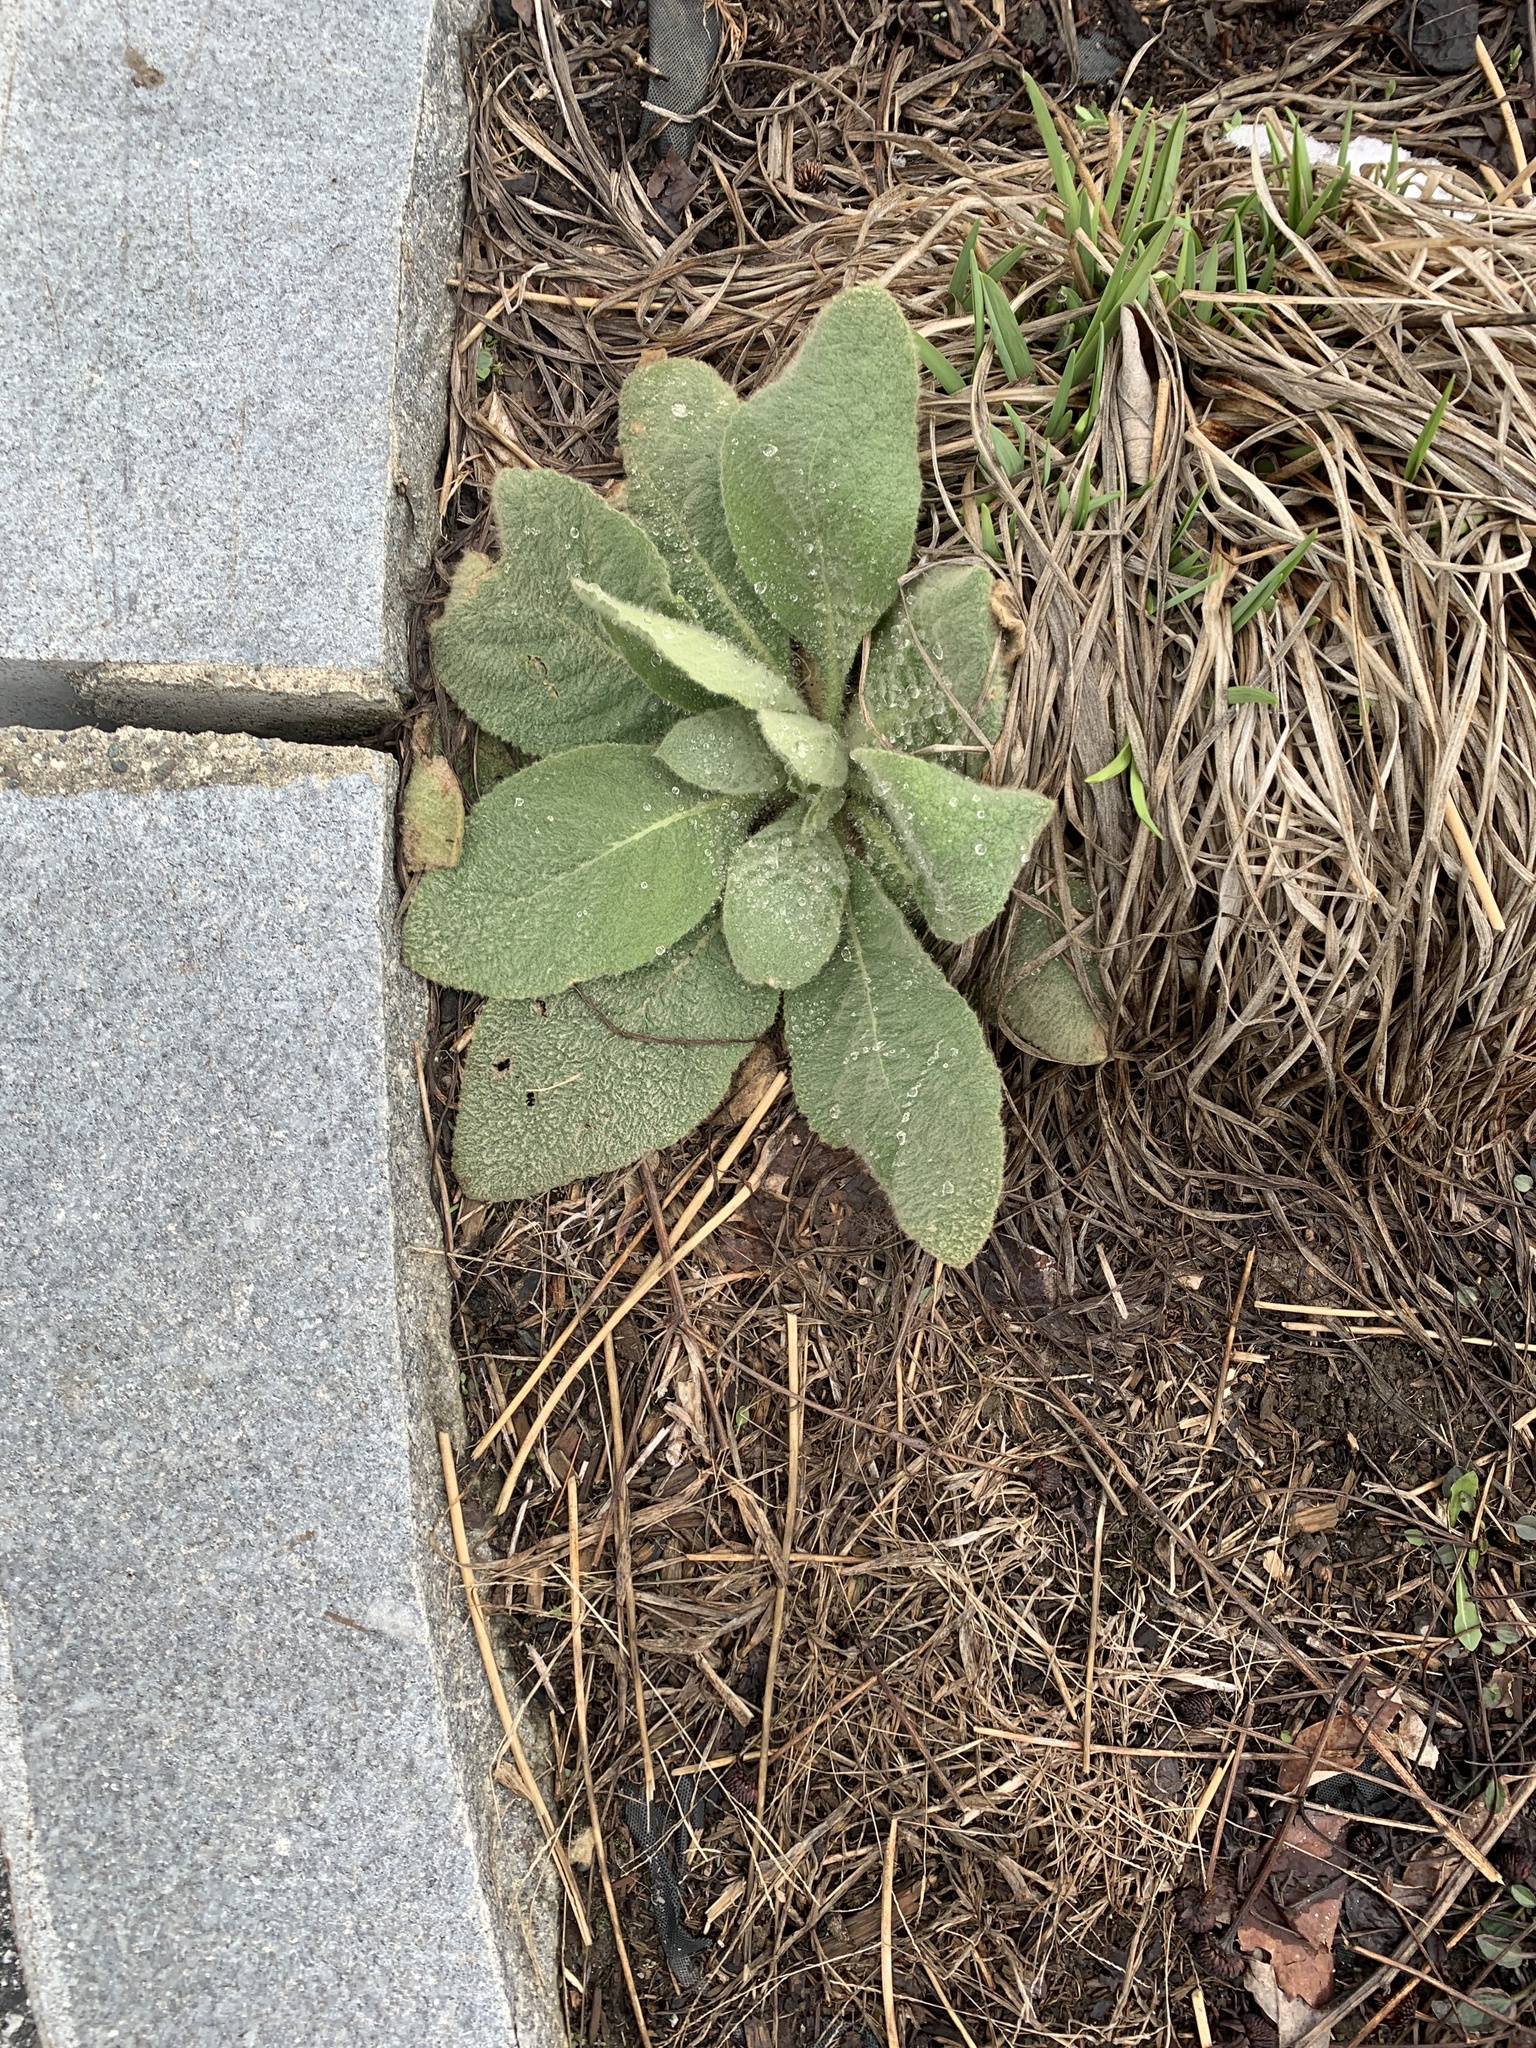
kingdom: Plantae
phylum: Tracheophyta
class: Magnoliopsida
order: Lamiales
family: Scrophulariaceae
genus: Verbascum
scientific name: Verbascum thapsus
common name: Common mullein
